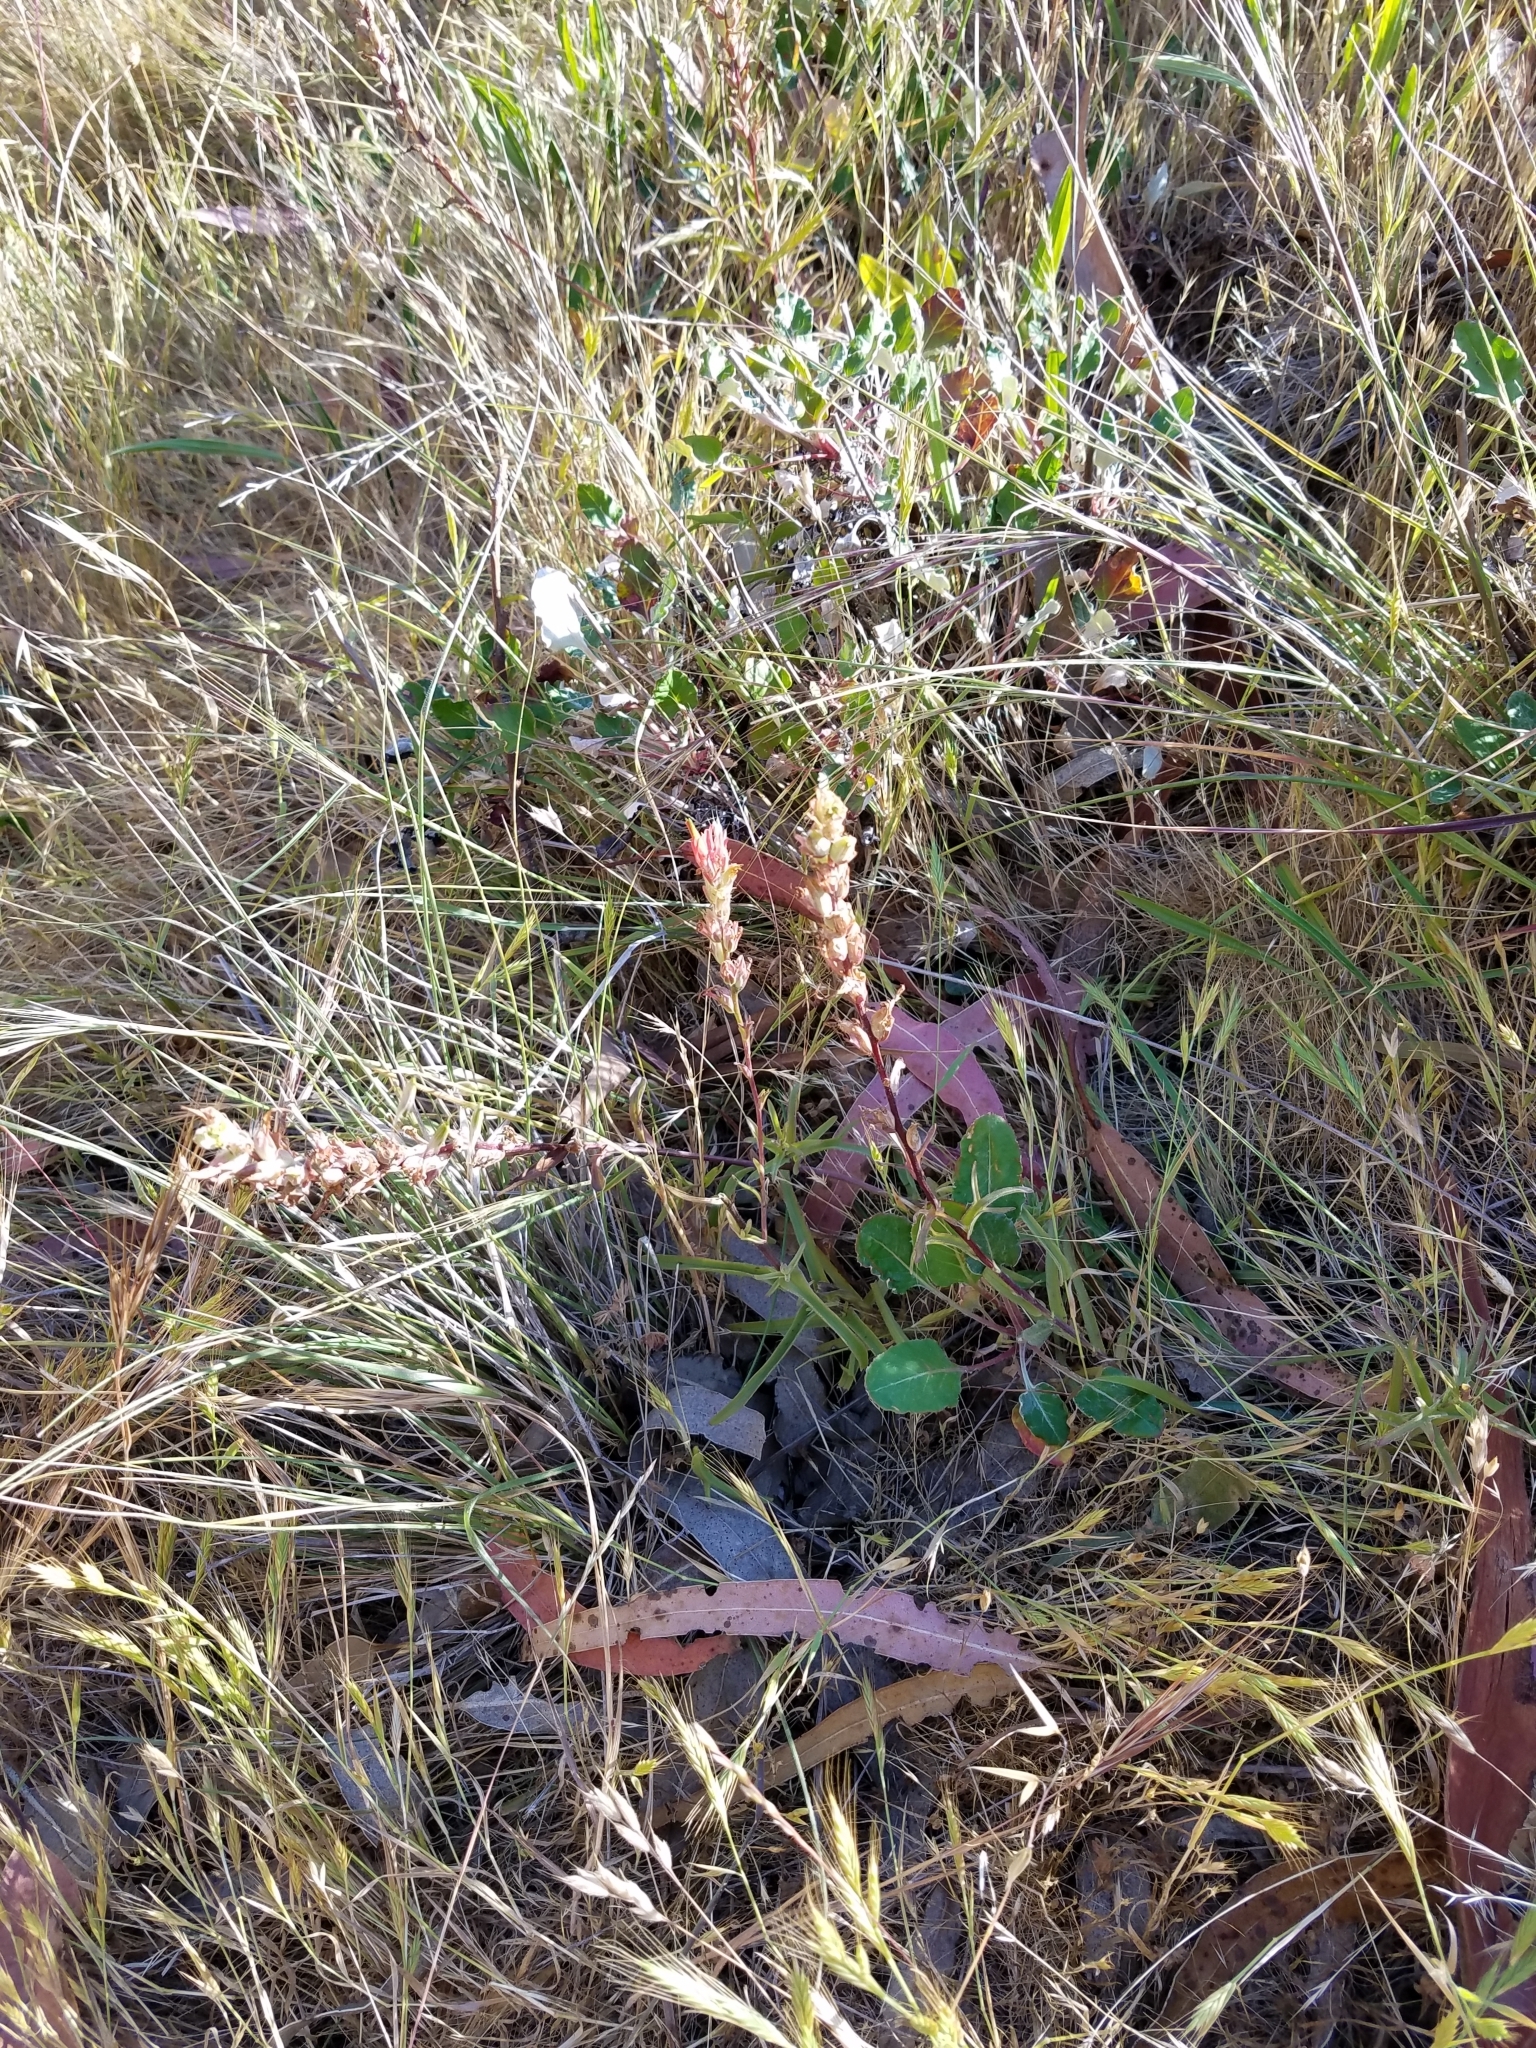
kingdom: Plantae
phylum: Tracheophyta
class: Magnoliopsida
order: Lamiales
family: Orobanchaceae
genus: Castilleja
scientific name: Castilleja affinis
